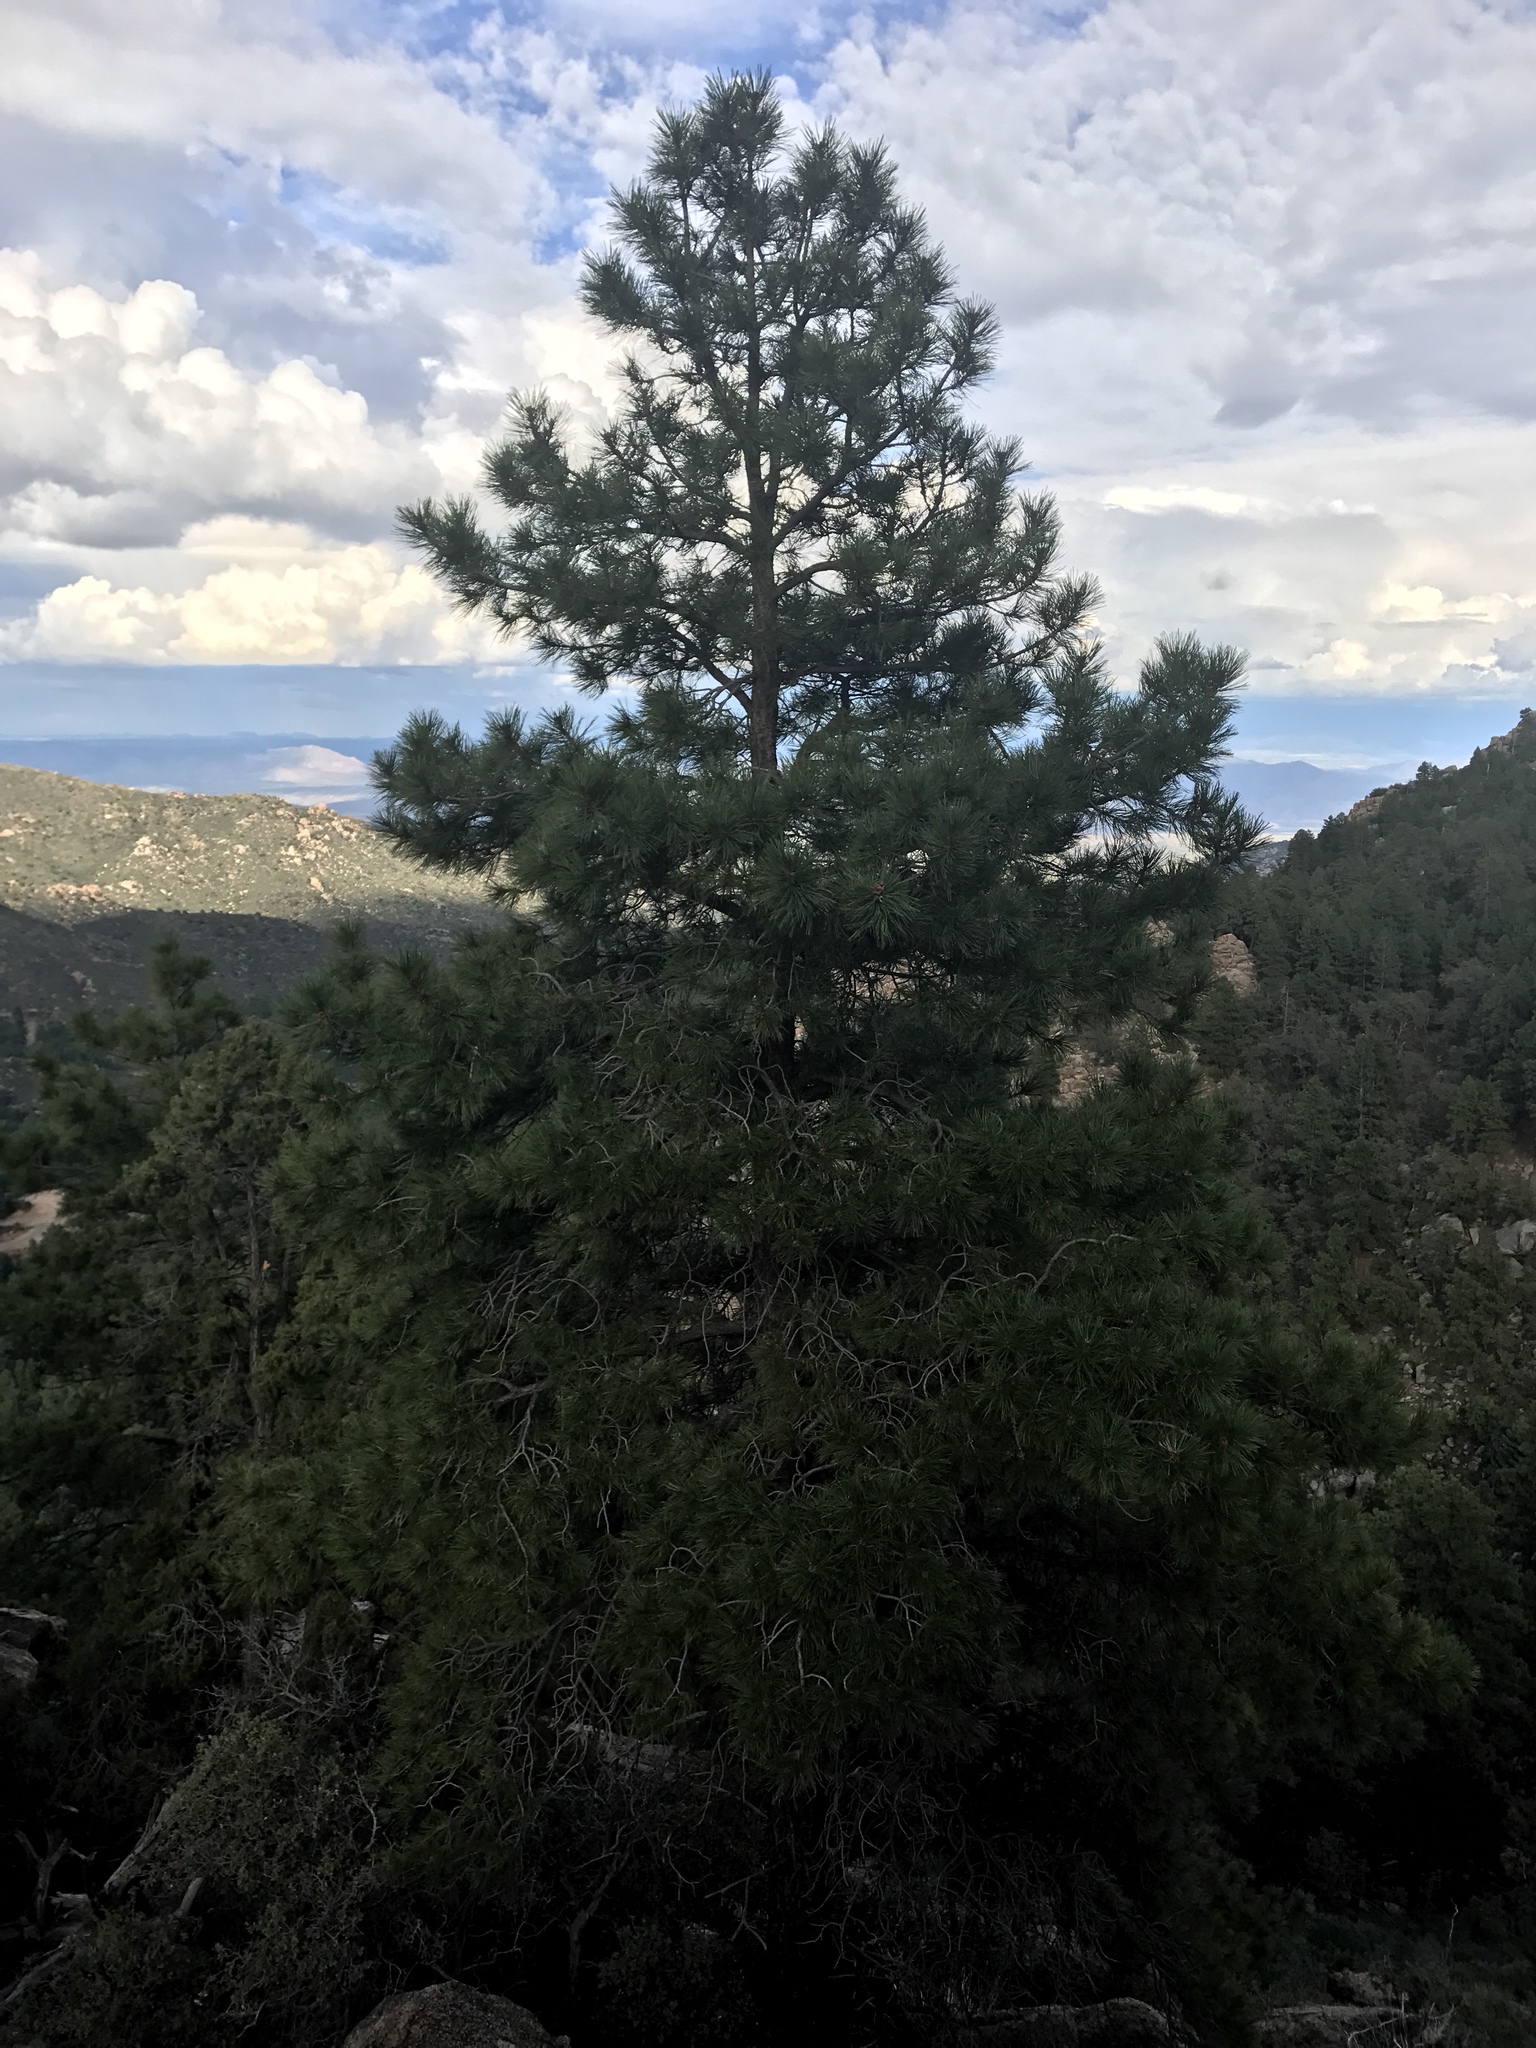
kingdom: Plantae
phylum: Tracheophyta
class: Pinopsida
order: Pinales
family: Pinaceae
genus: Pinus
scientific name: Pinus ponderosa
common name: Western yellow-pine
